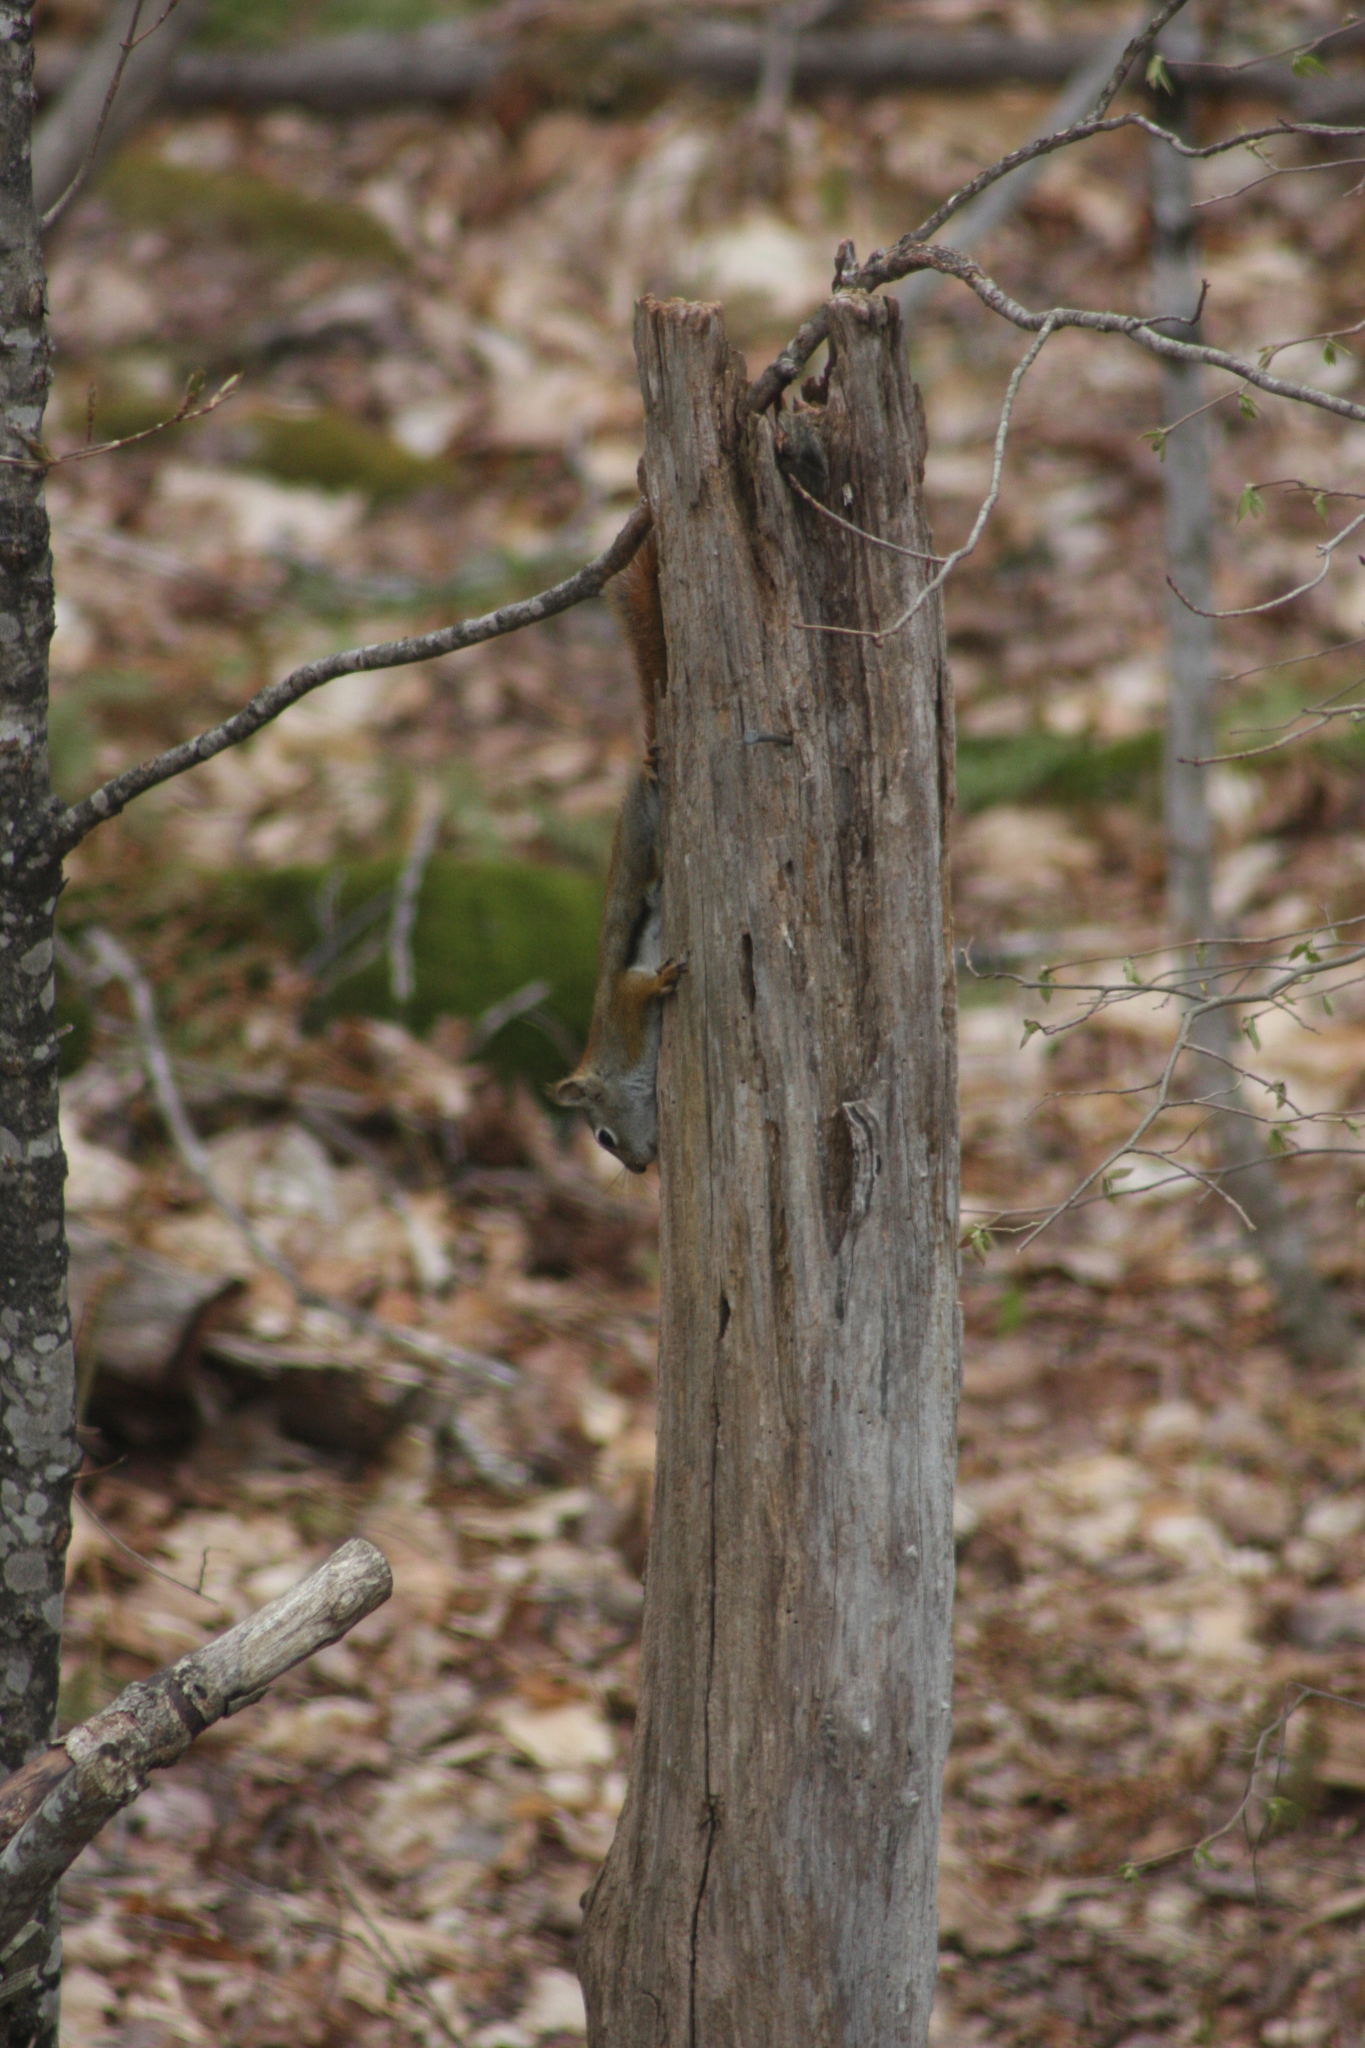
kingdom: Animalia
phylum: Chordata
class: Mammalia
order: Rodentia
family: Sciuridae
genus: Tamiasciurus
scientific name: Tamiasciurus hudsonicus
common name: Red squirrel
